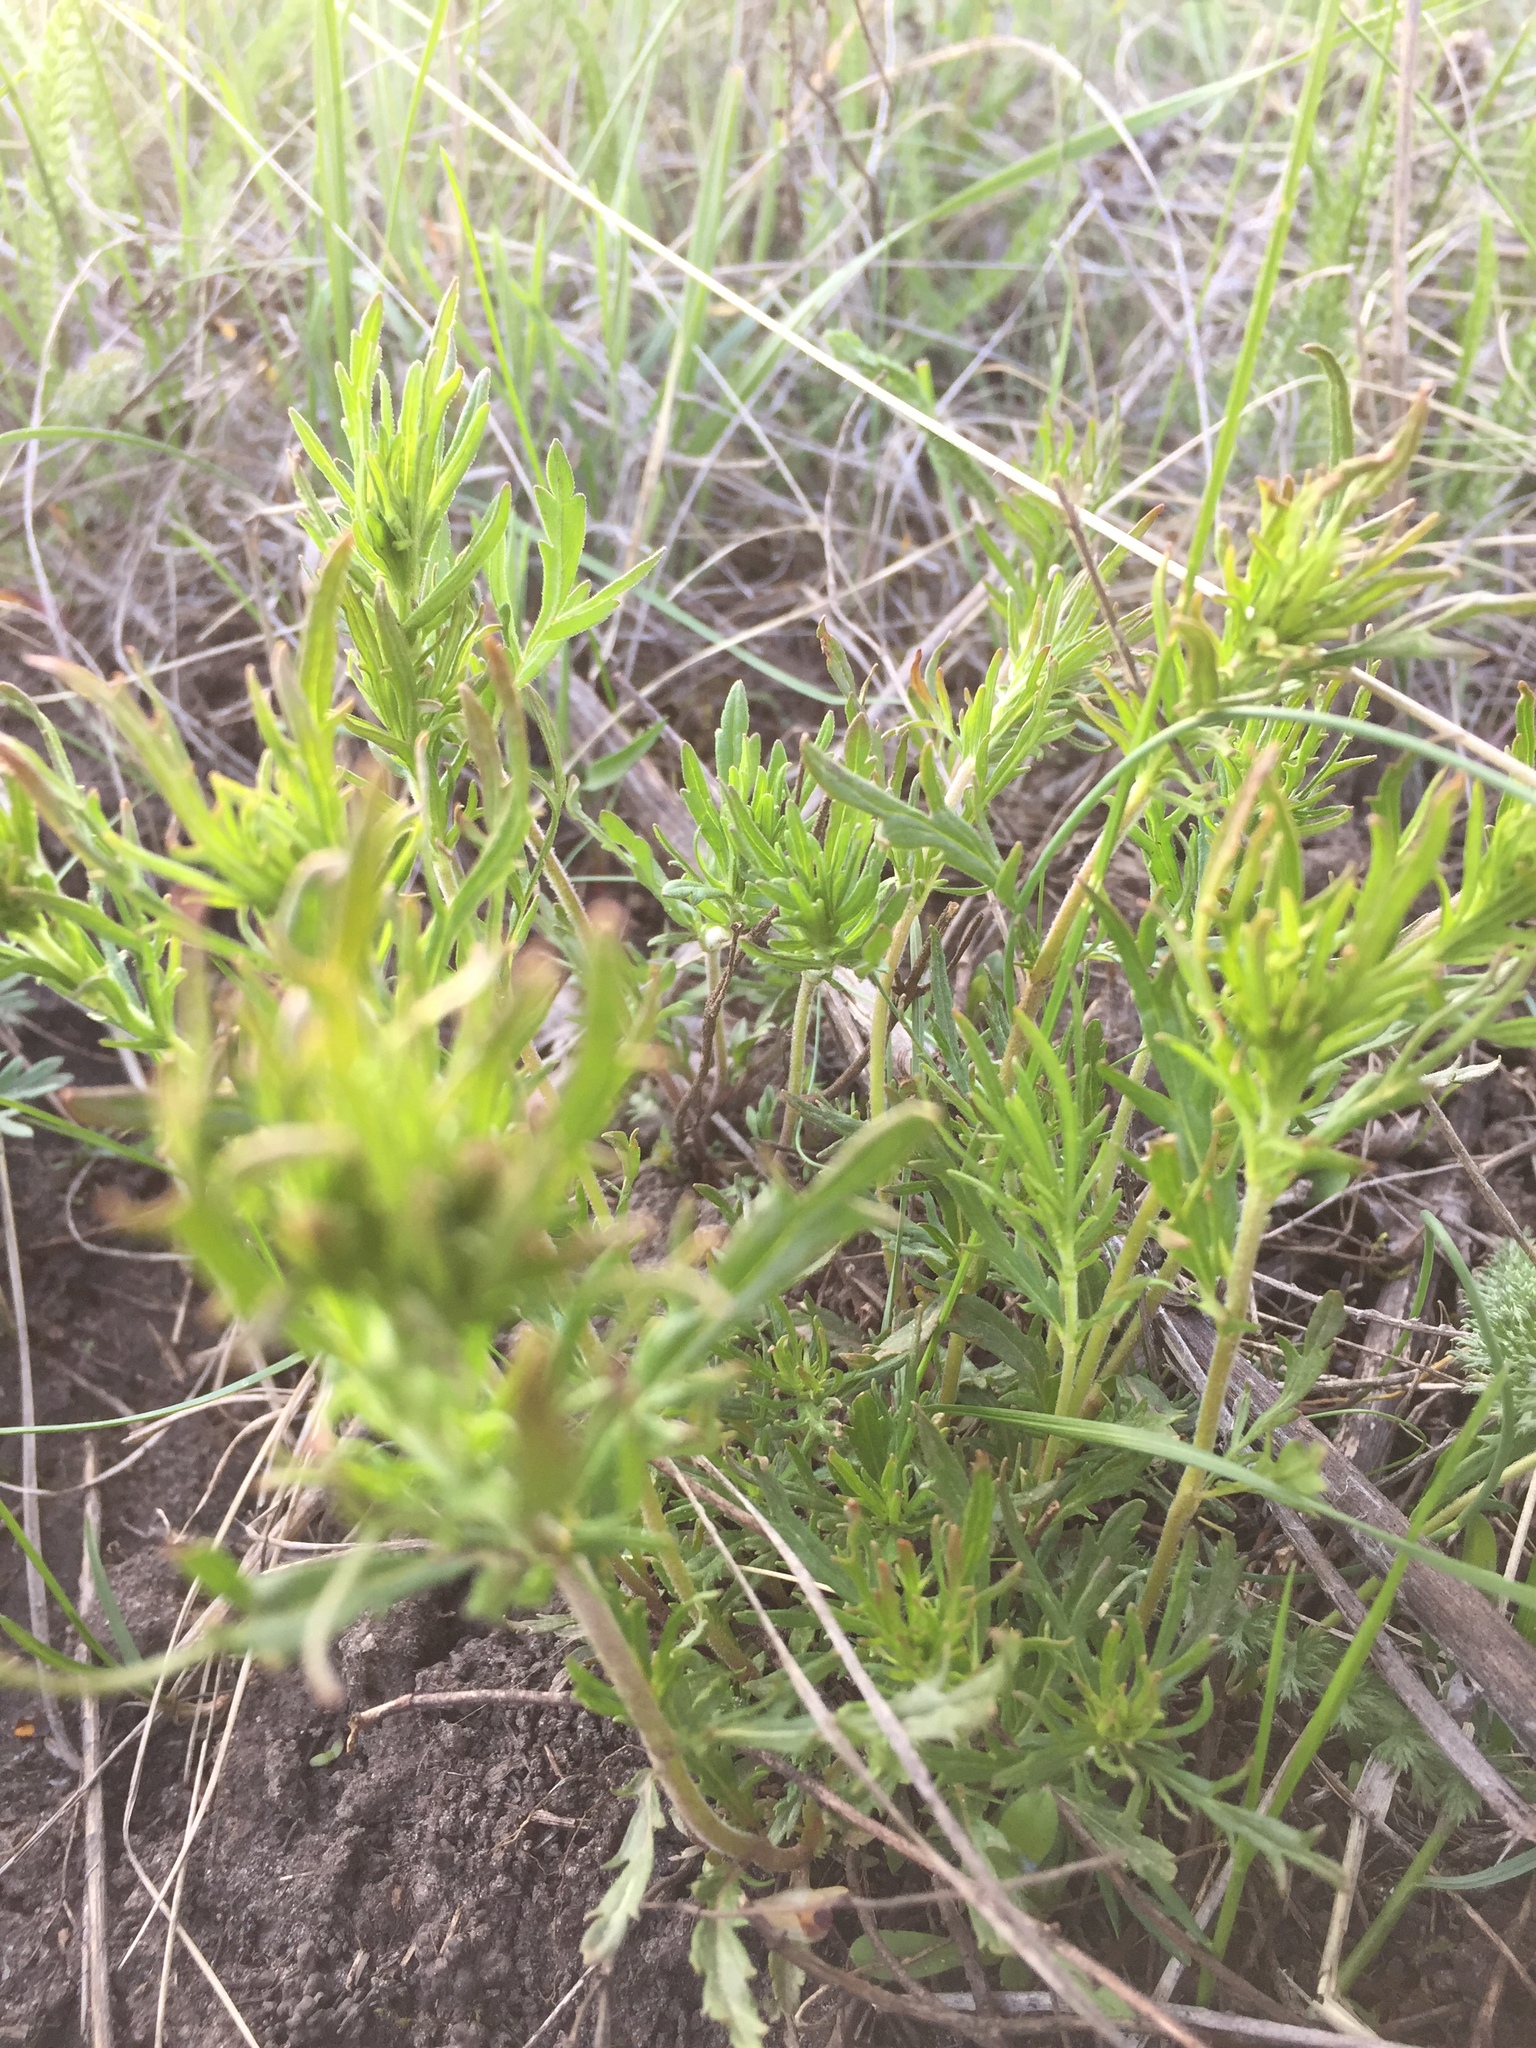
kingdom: Plantae
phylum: Tracheophyta
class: Magnoliopsida
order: Lamiales
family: Plantaginaceae
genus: Veronica
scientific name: Veronica austriaca
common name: Large speedwell
